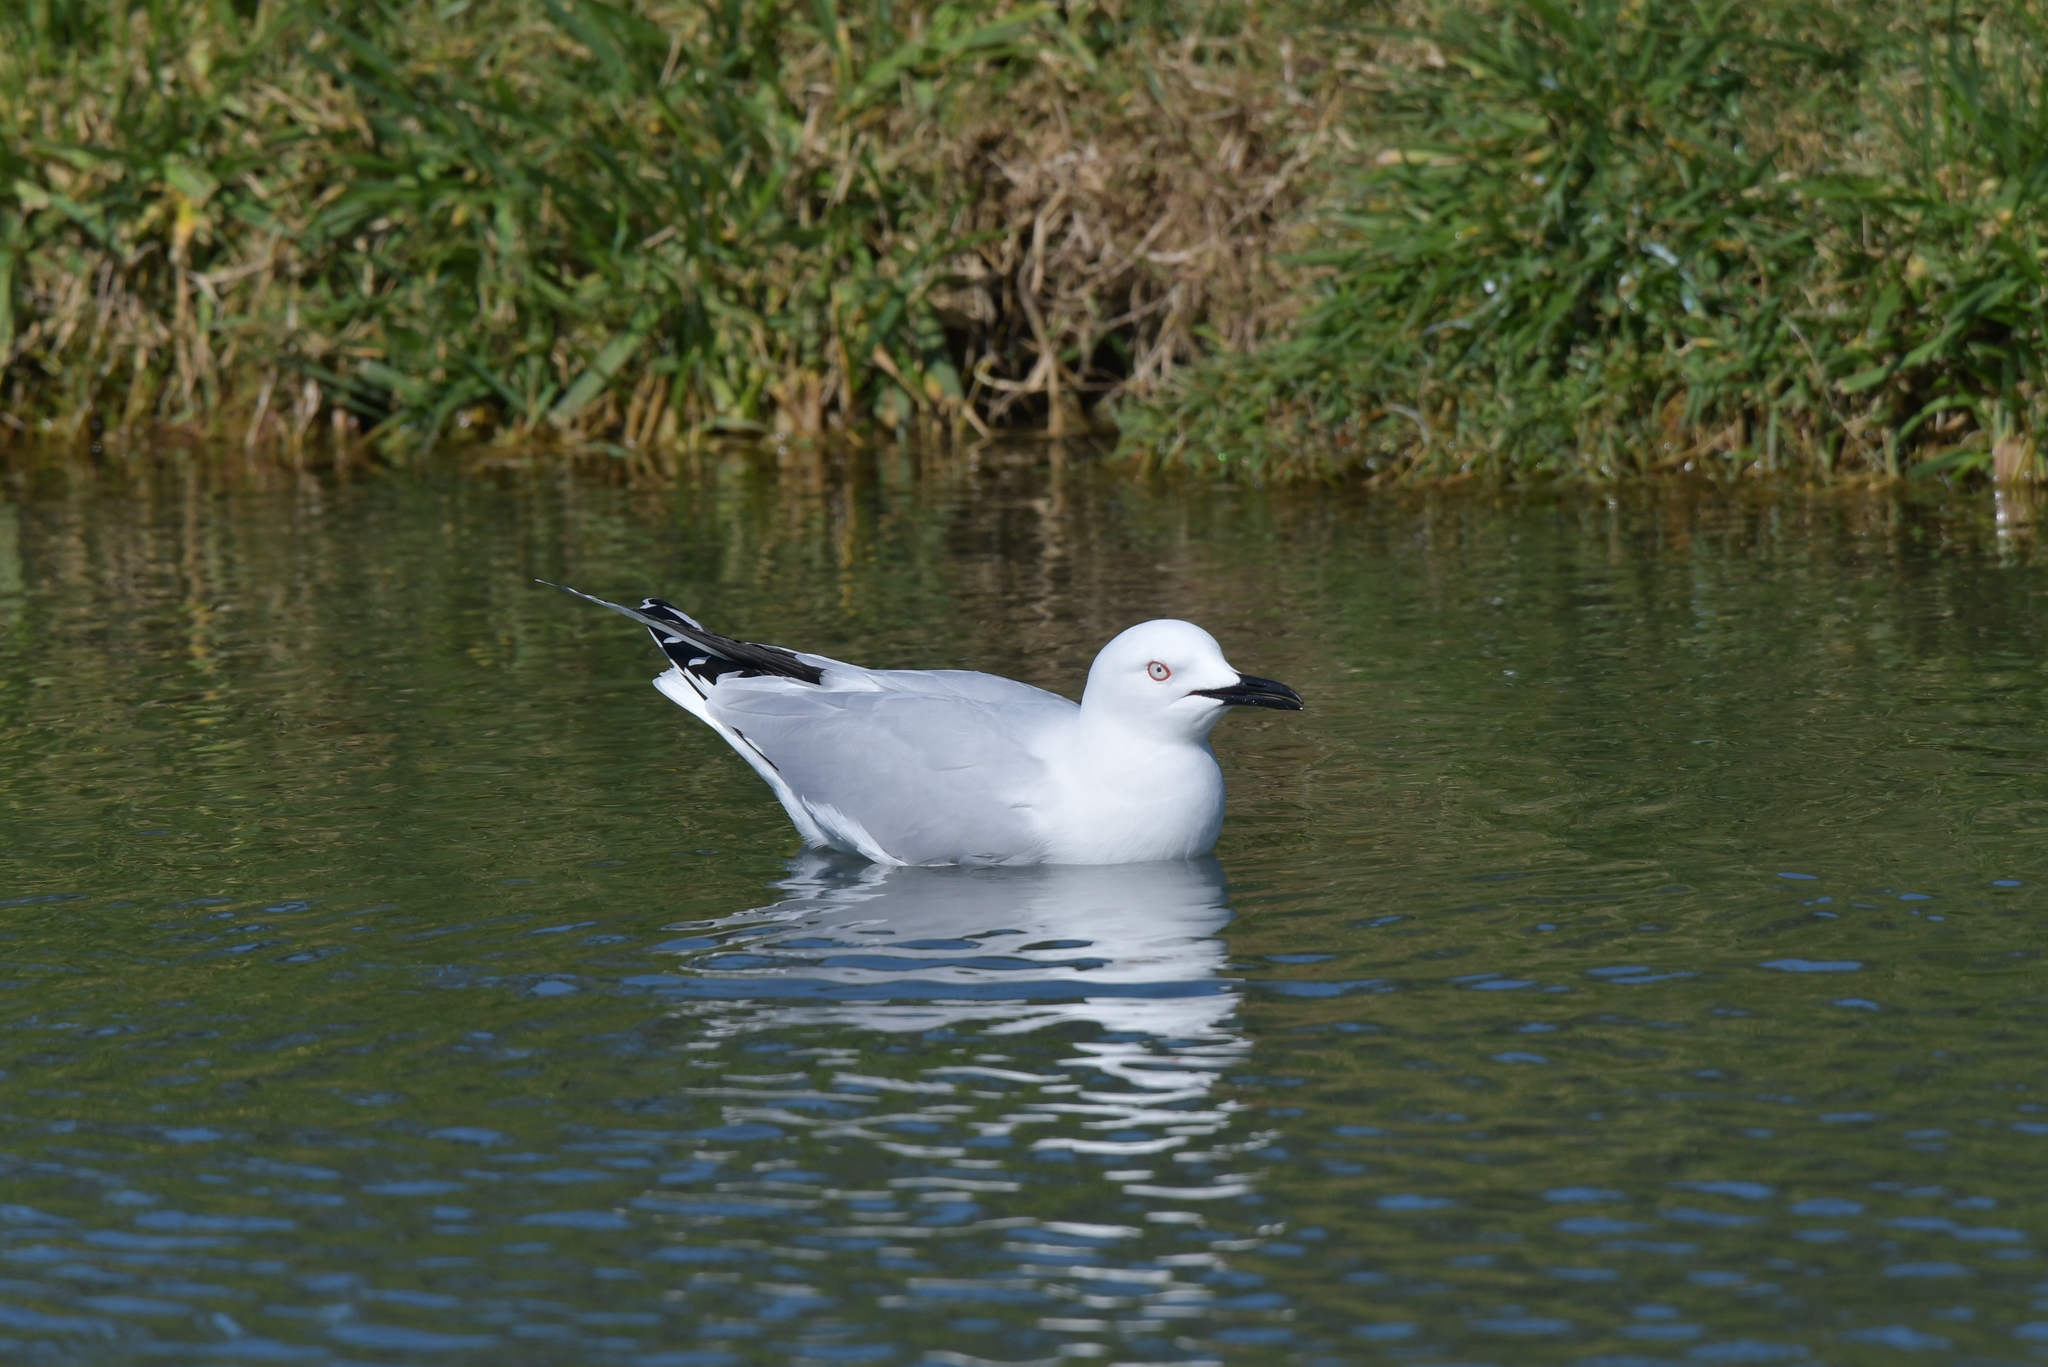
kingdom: Animalia
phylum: Chordata
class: Aves
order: Charadriiformes
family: Laridae
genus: Chroicocephalus
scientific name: Chroicocephalus bulleri
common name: Black-billed gull
